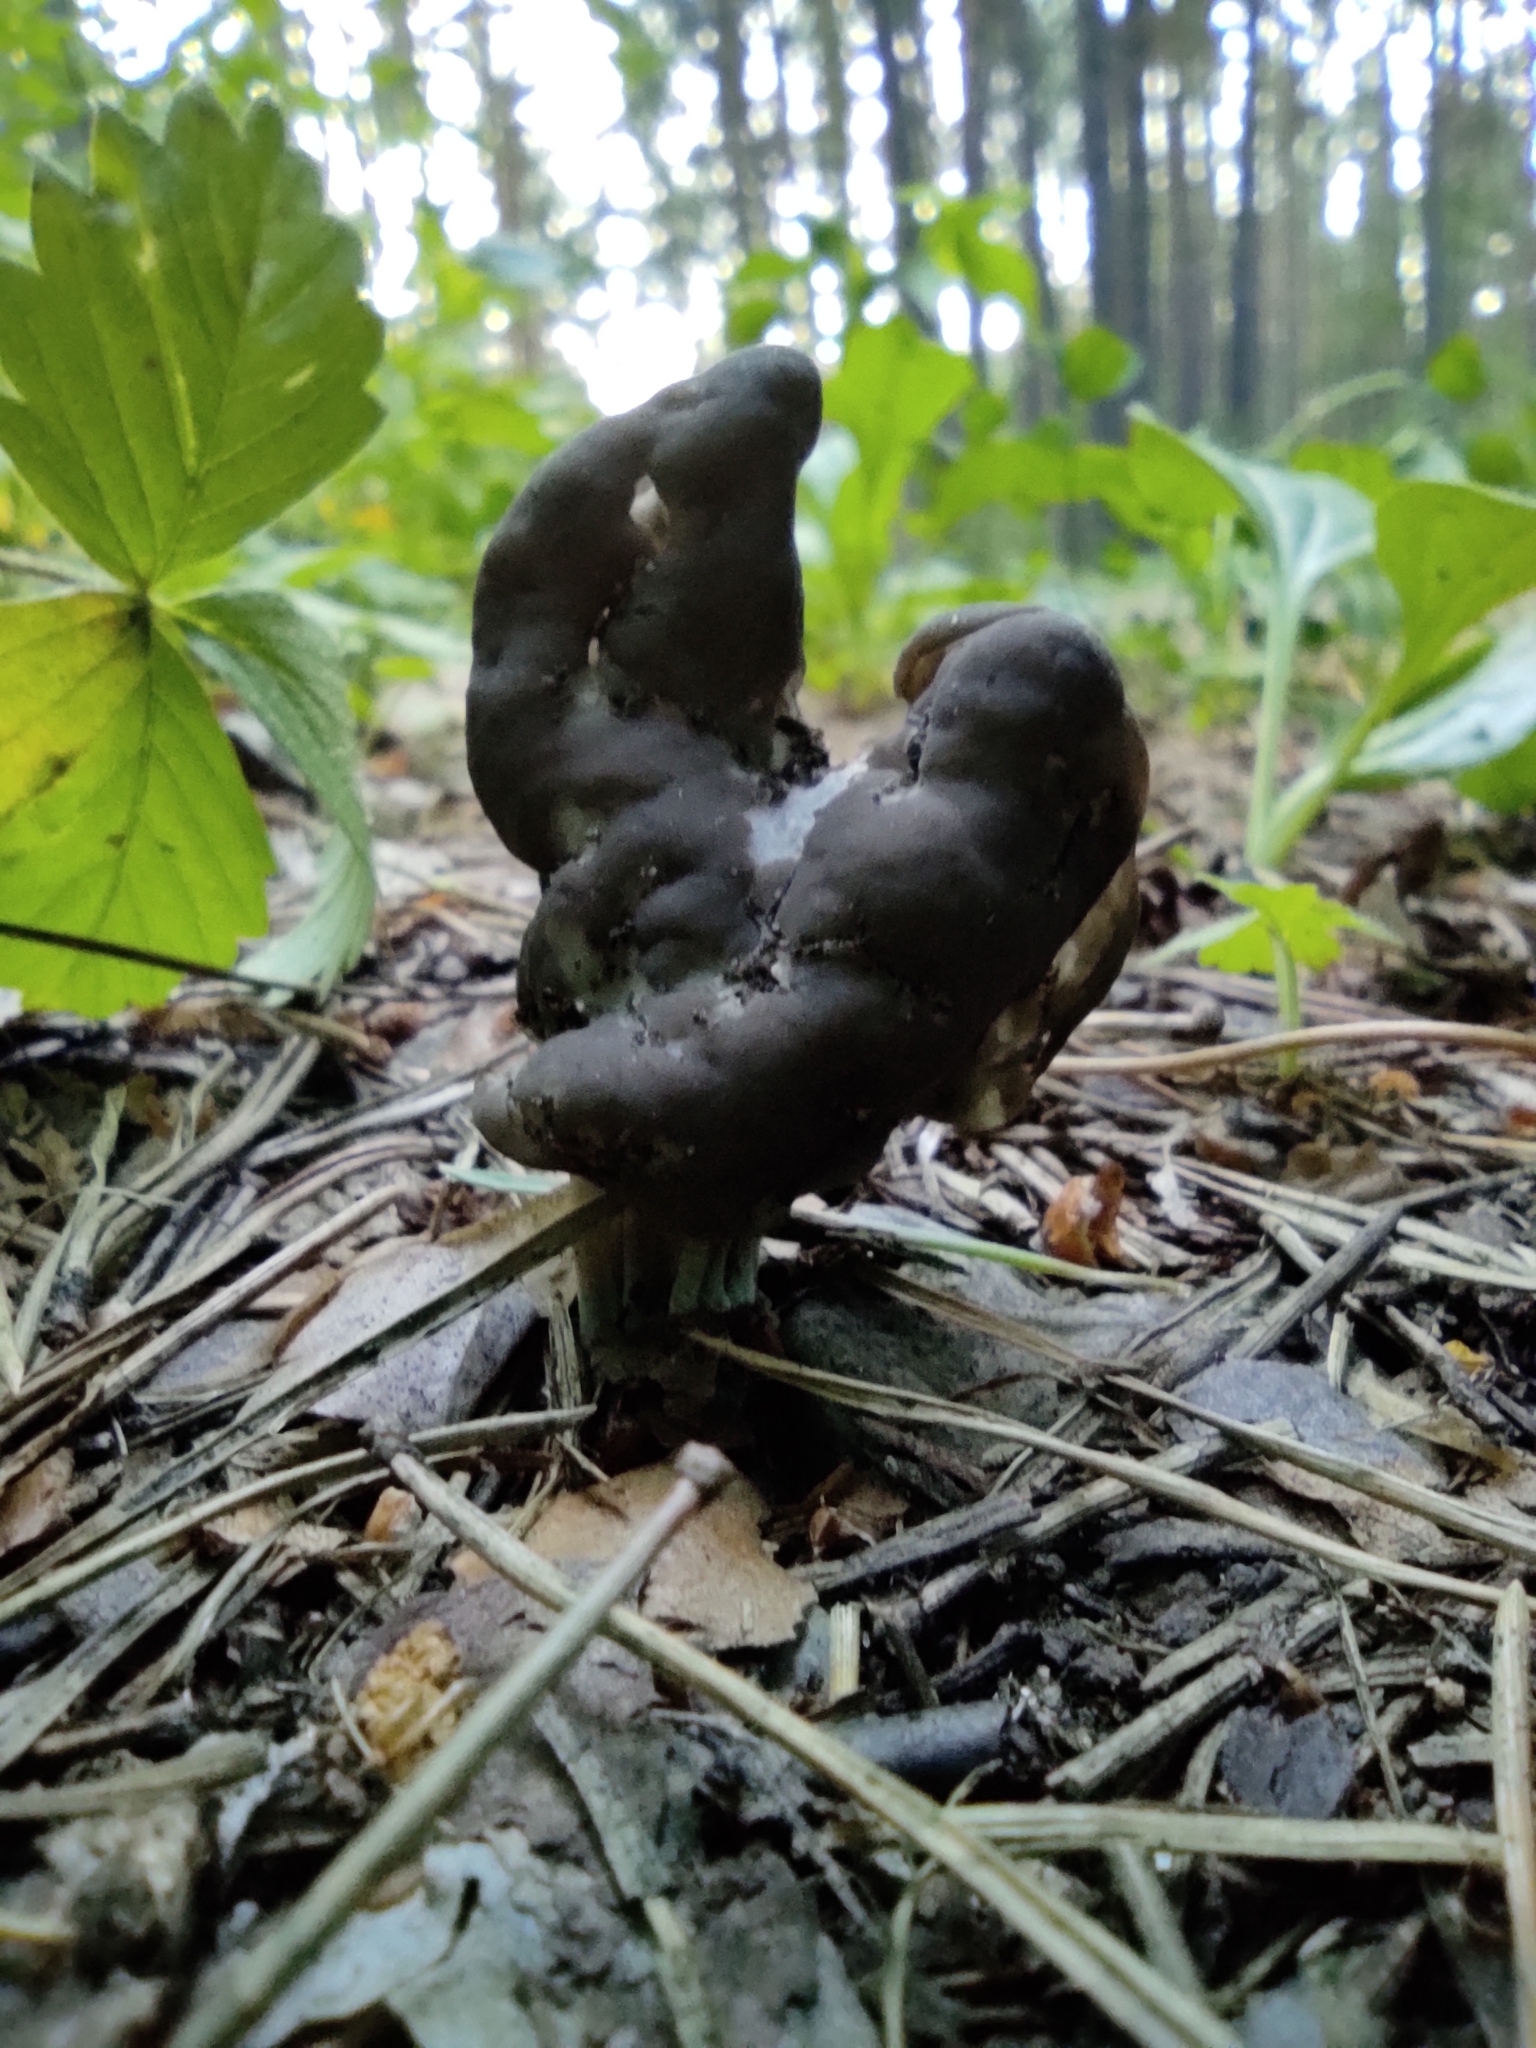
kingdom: Fungi
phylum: Ascomycota
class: Pezizomycetes
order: Pezizales
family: Helvellaceae
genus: Helvella
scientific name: Helvella lacunosa
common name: Elfin saddle
